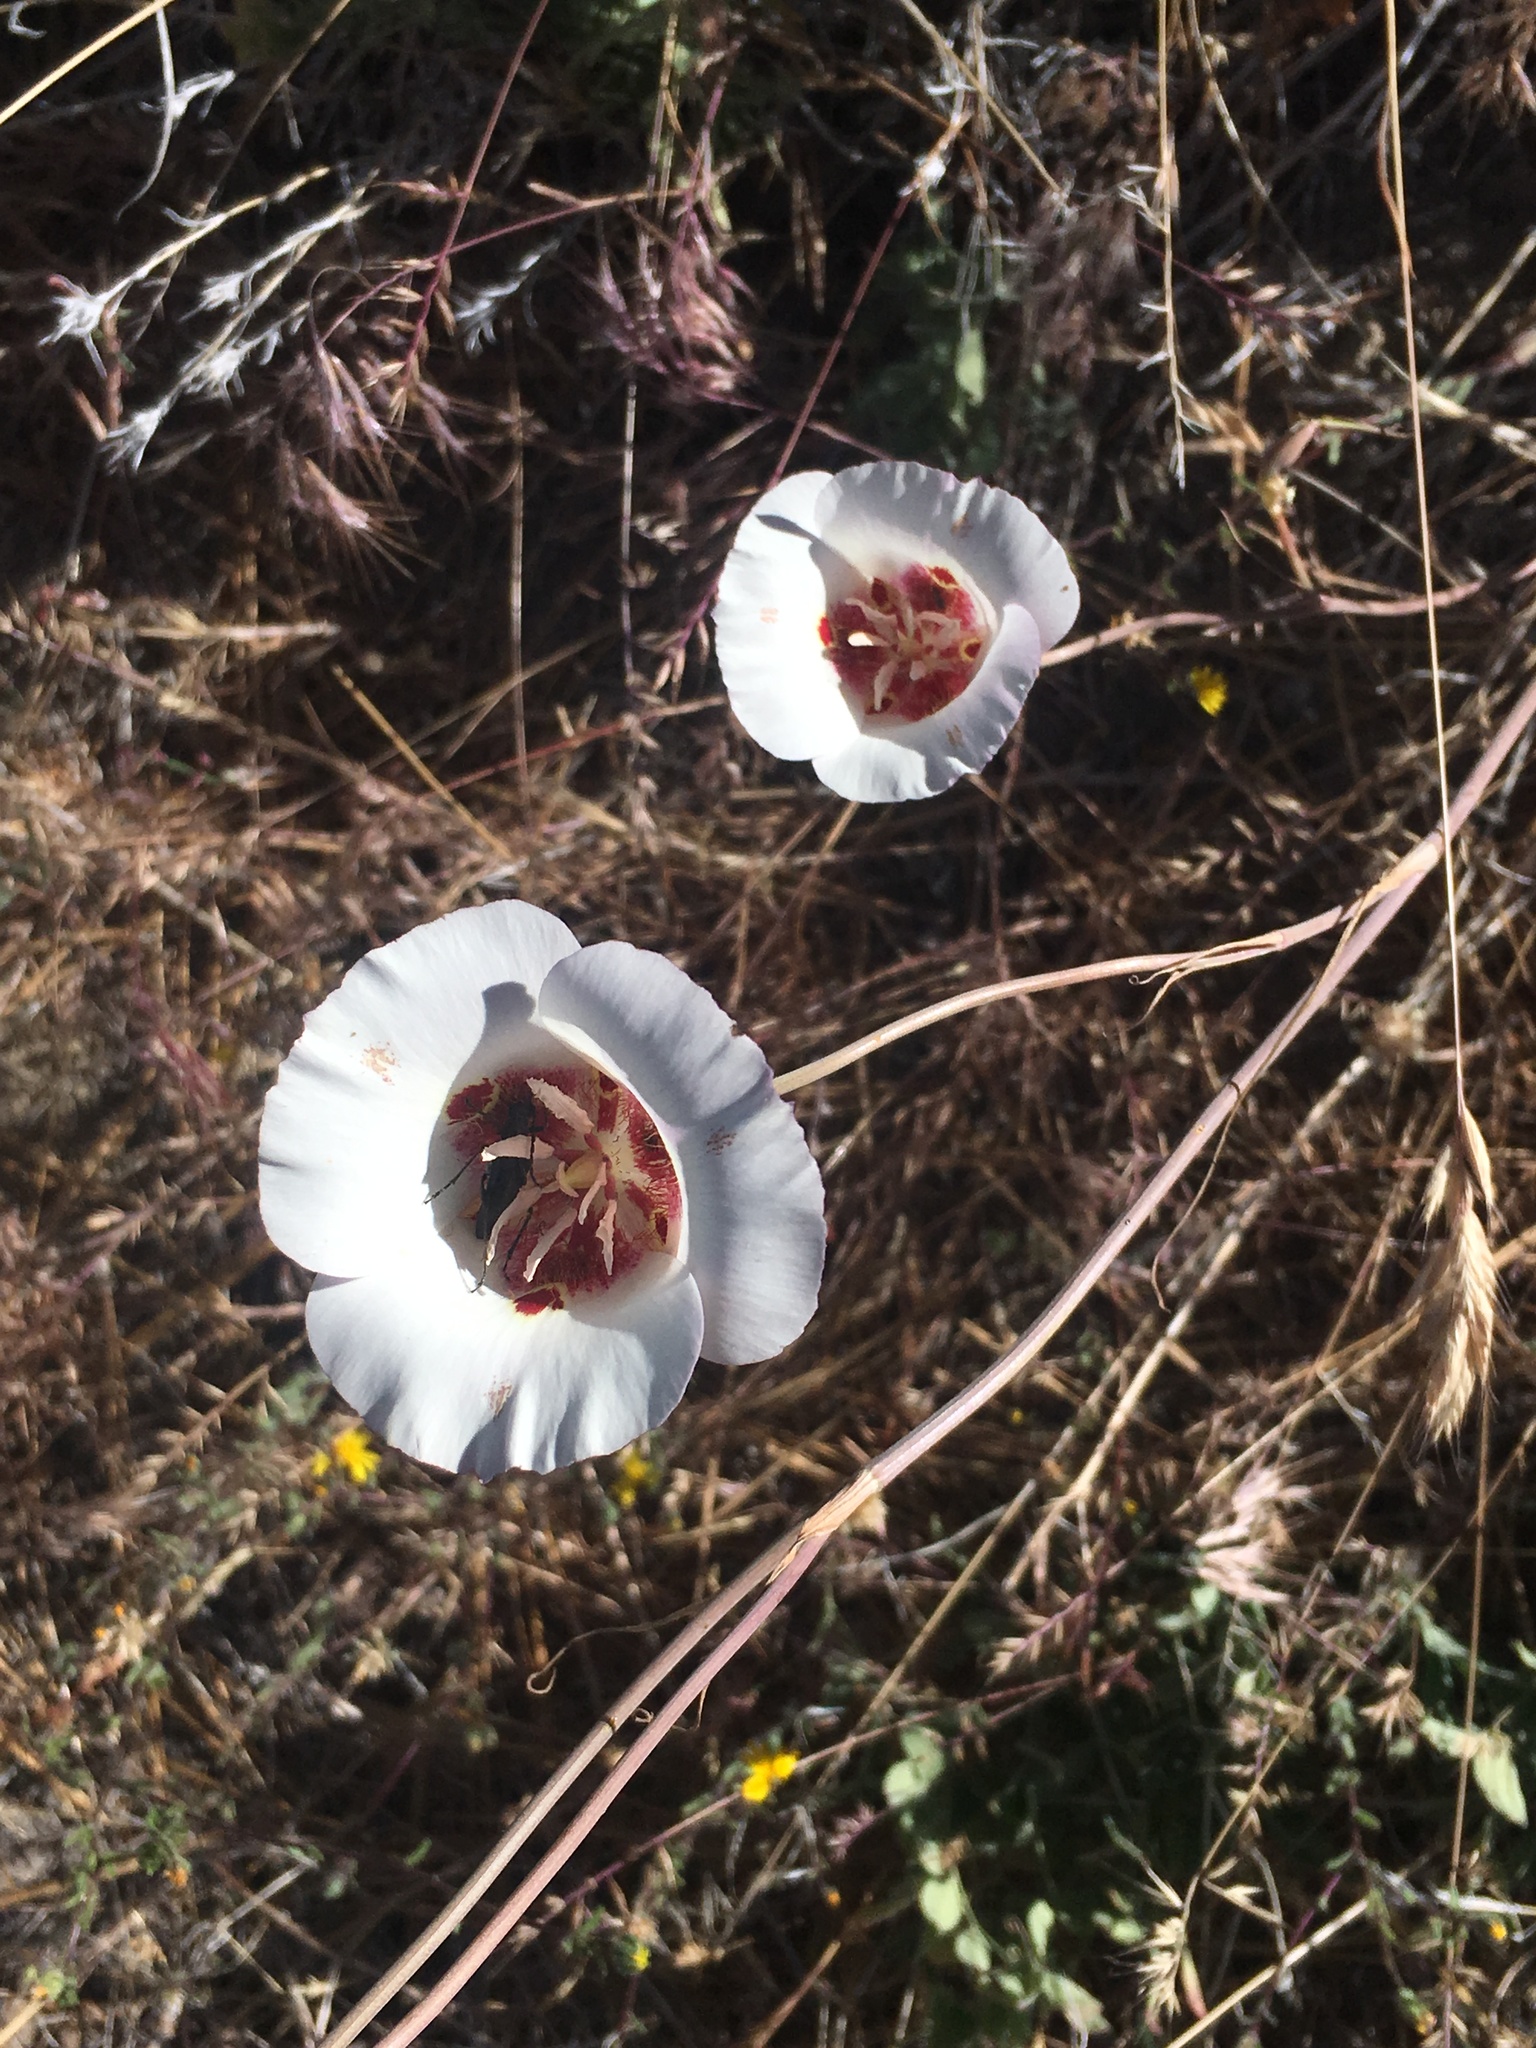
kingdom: Plantae
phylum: Tracheophyta
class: Liliopsida
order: Liliales
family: Liliaceae
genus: Calochortus
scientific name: Calochortus venustus
